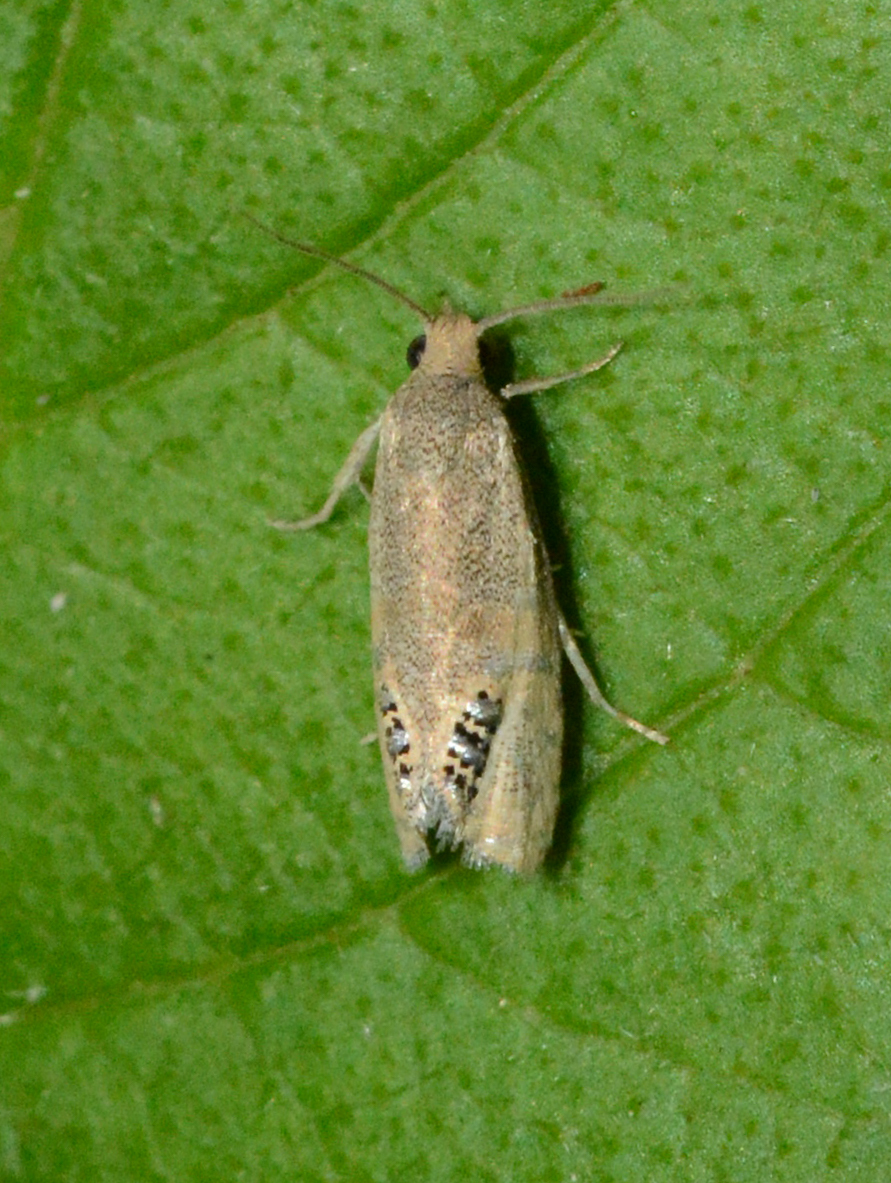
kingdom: Animalia
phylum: Arthropoda
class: Insecta
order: Lepidoptera
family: Tortricidae
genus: Pelochrista
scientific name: Pelochrista scintillana
